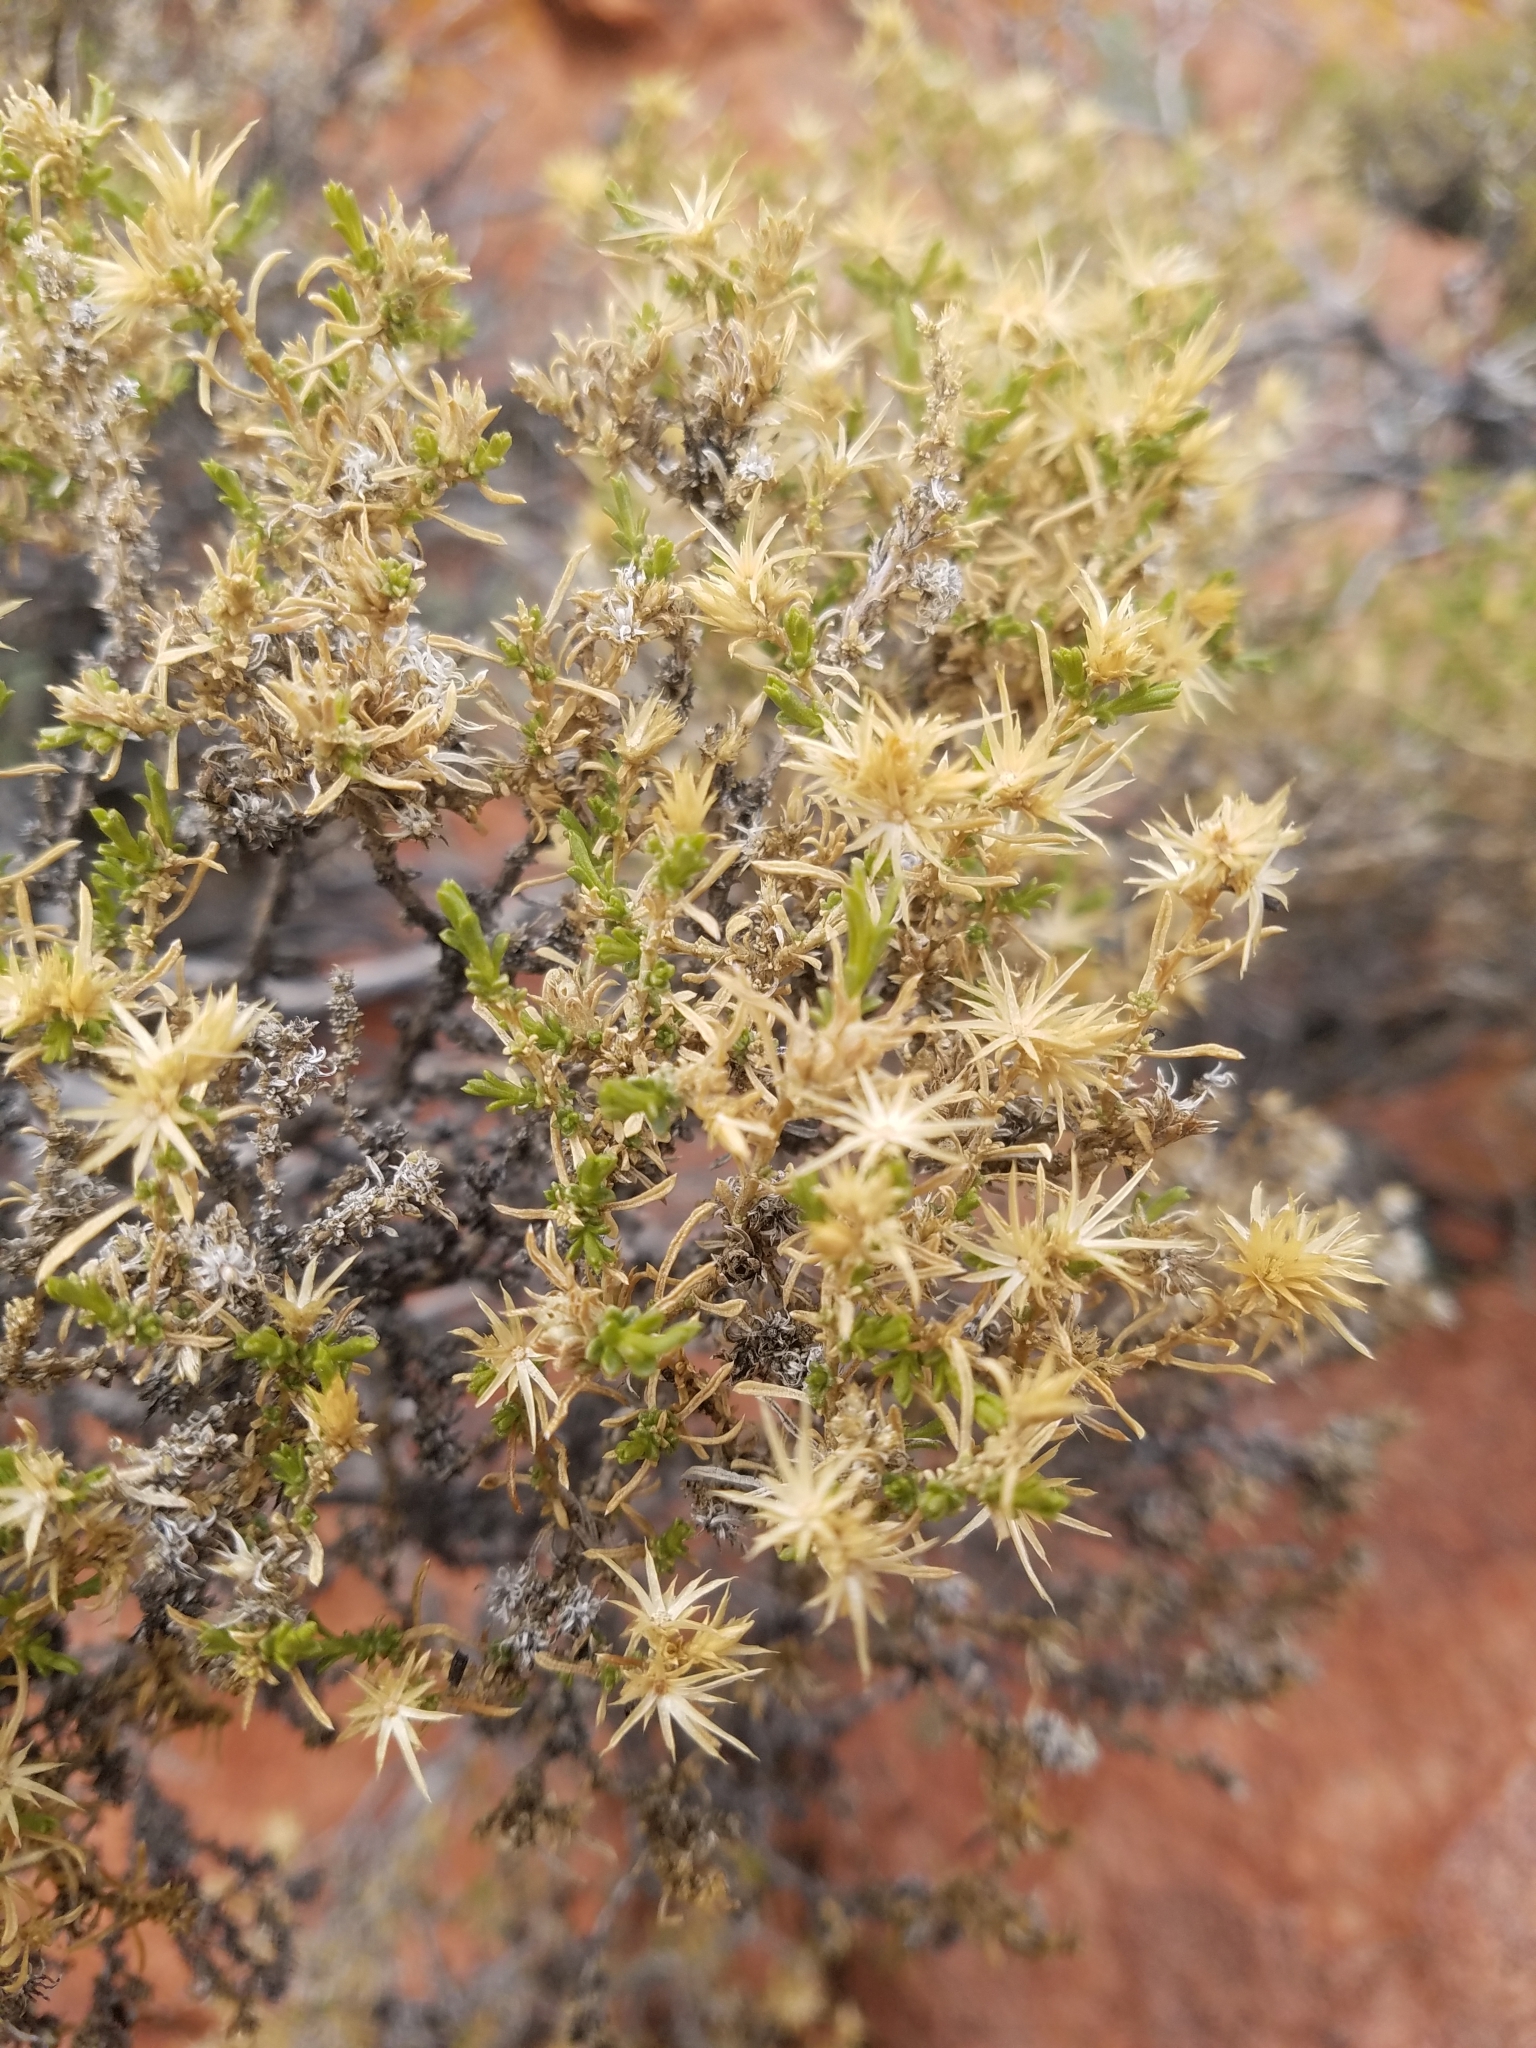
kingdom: Plantae
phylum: Tracheophyta
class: Magnoliopsida
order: Asterales
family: Asteraceae
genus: Ericameria
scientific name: Ericameria nana
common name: Dwarf goldenbush
